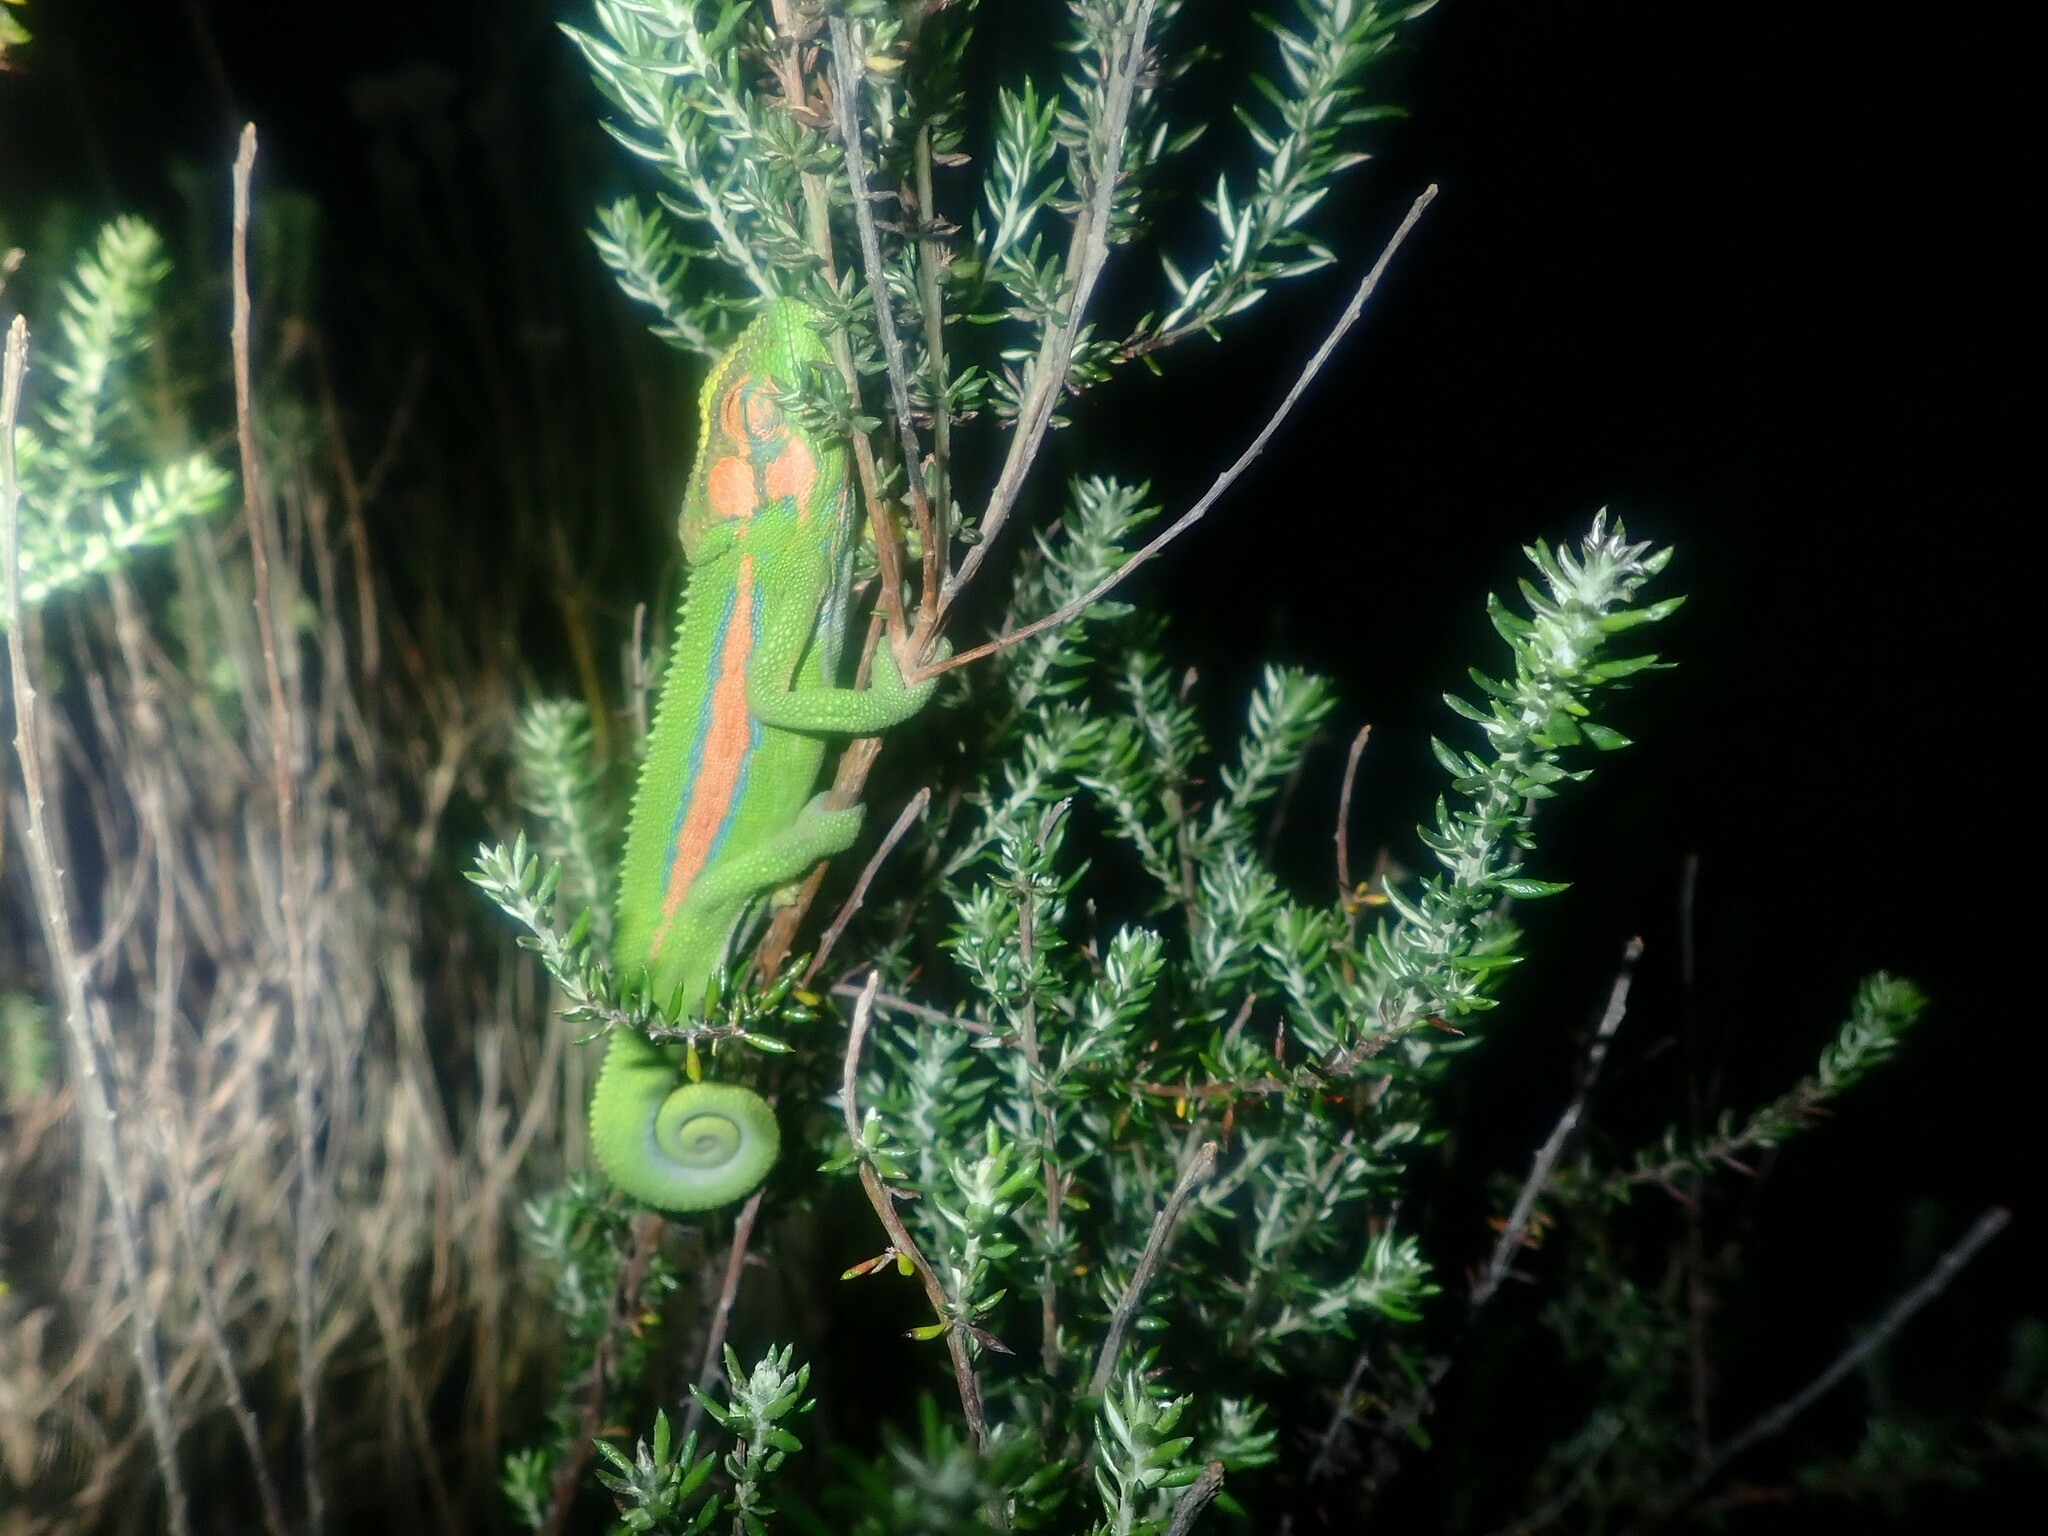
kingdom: Animalia
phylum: Chordata
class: Squamata
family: Chamaeleonidae
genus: Bradypodion
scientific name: Bradypodion pumilum
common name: Cape dwarf chameleon
